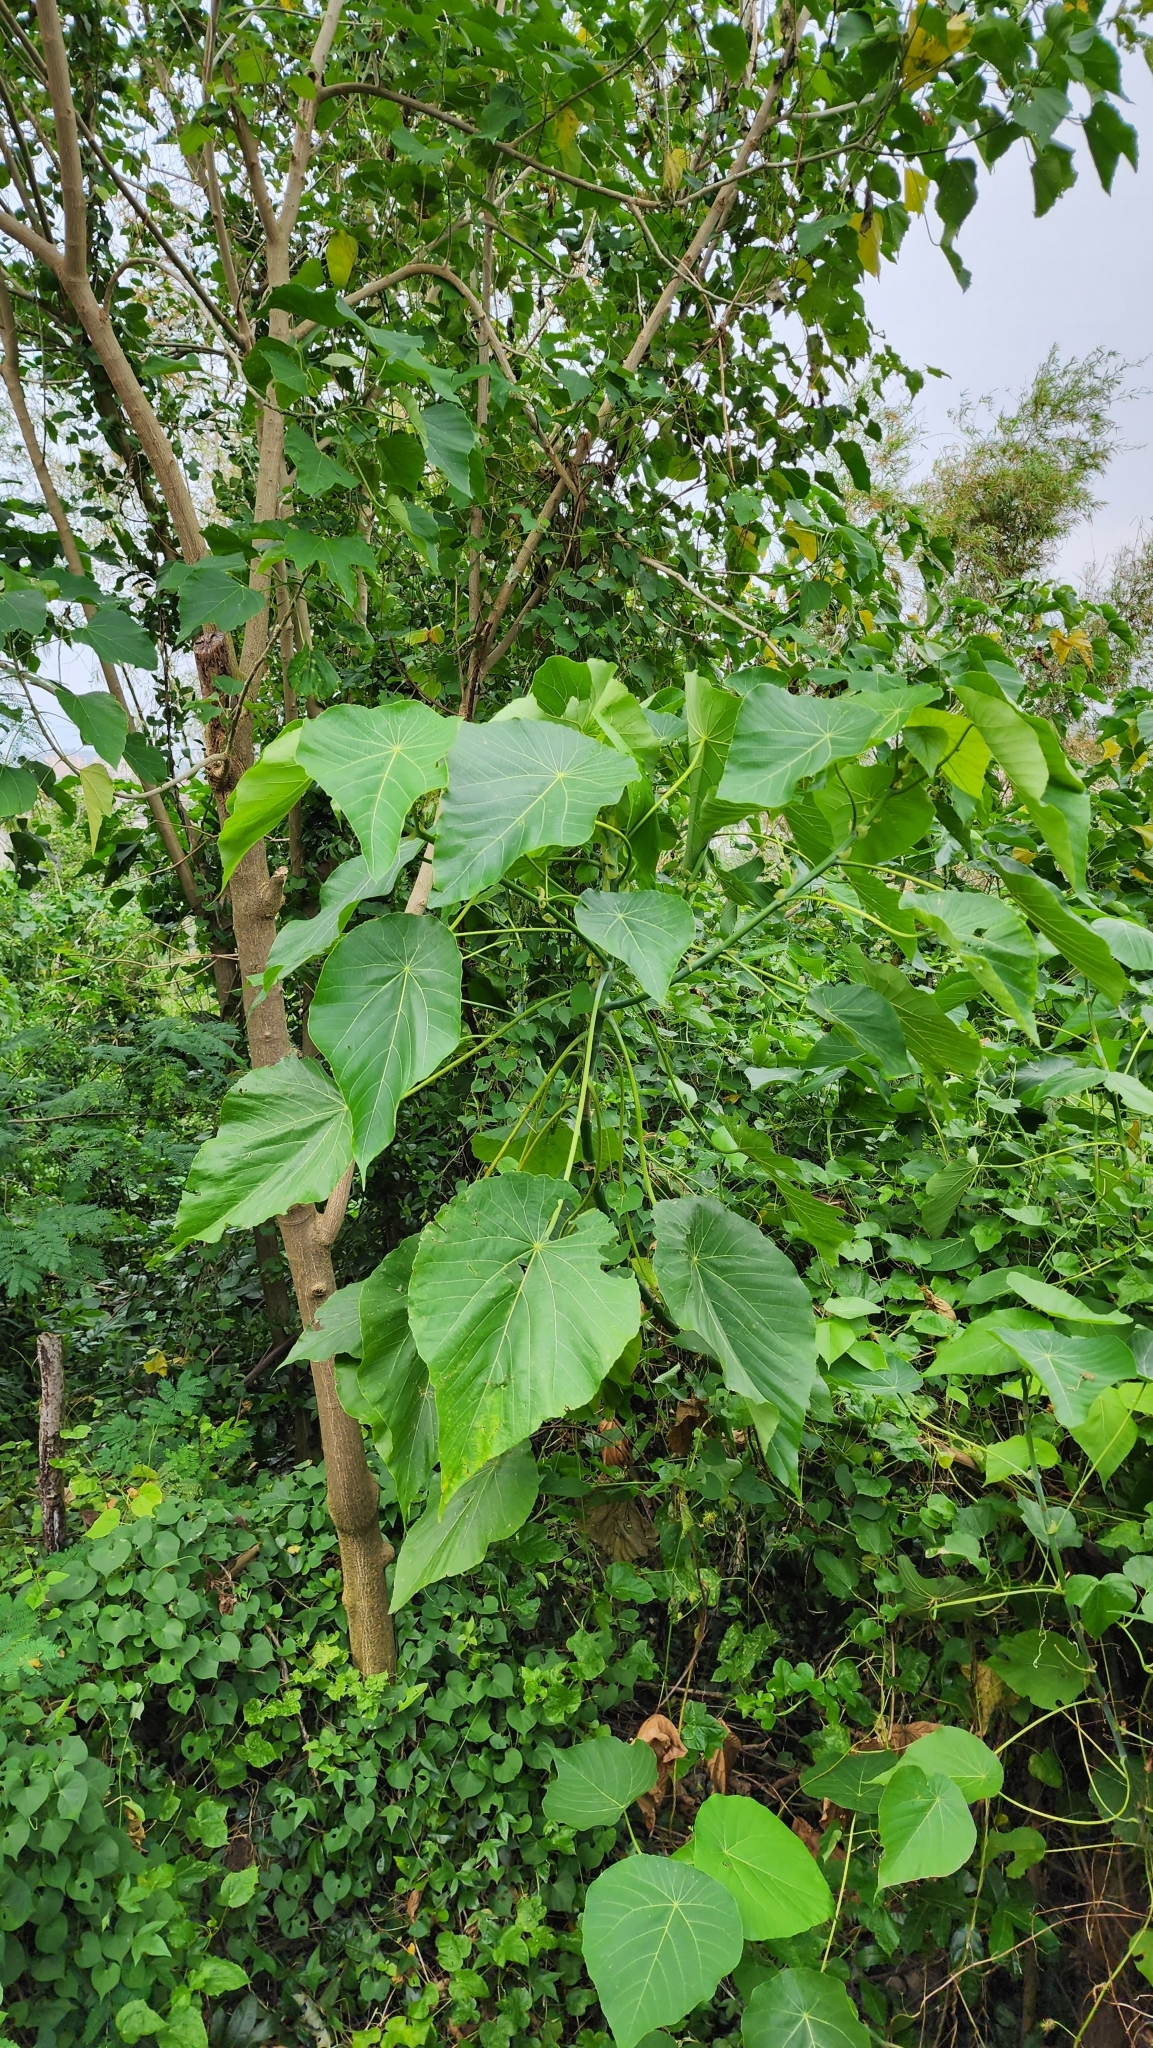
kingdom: Plantae
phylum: Tracheophyta
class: Magnoliopsida
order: Malpighiales
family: Euphorbiaceae
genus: Macaranga
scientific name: Macaranga tanarius
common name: Parasol leaf tree
